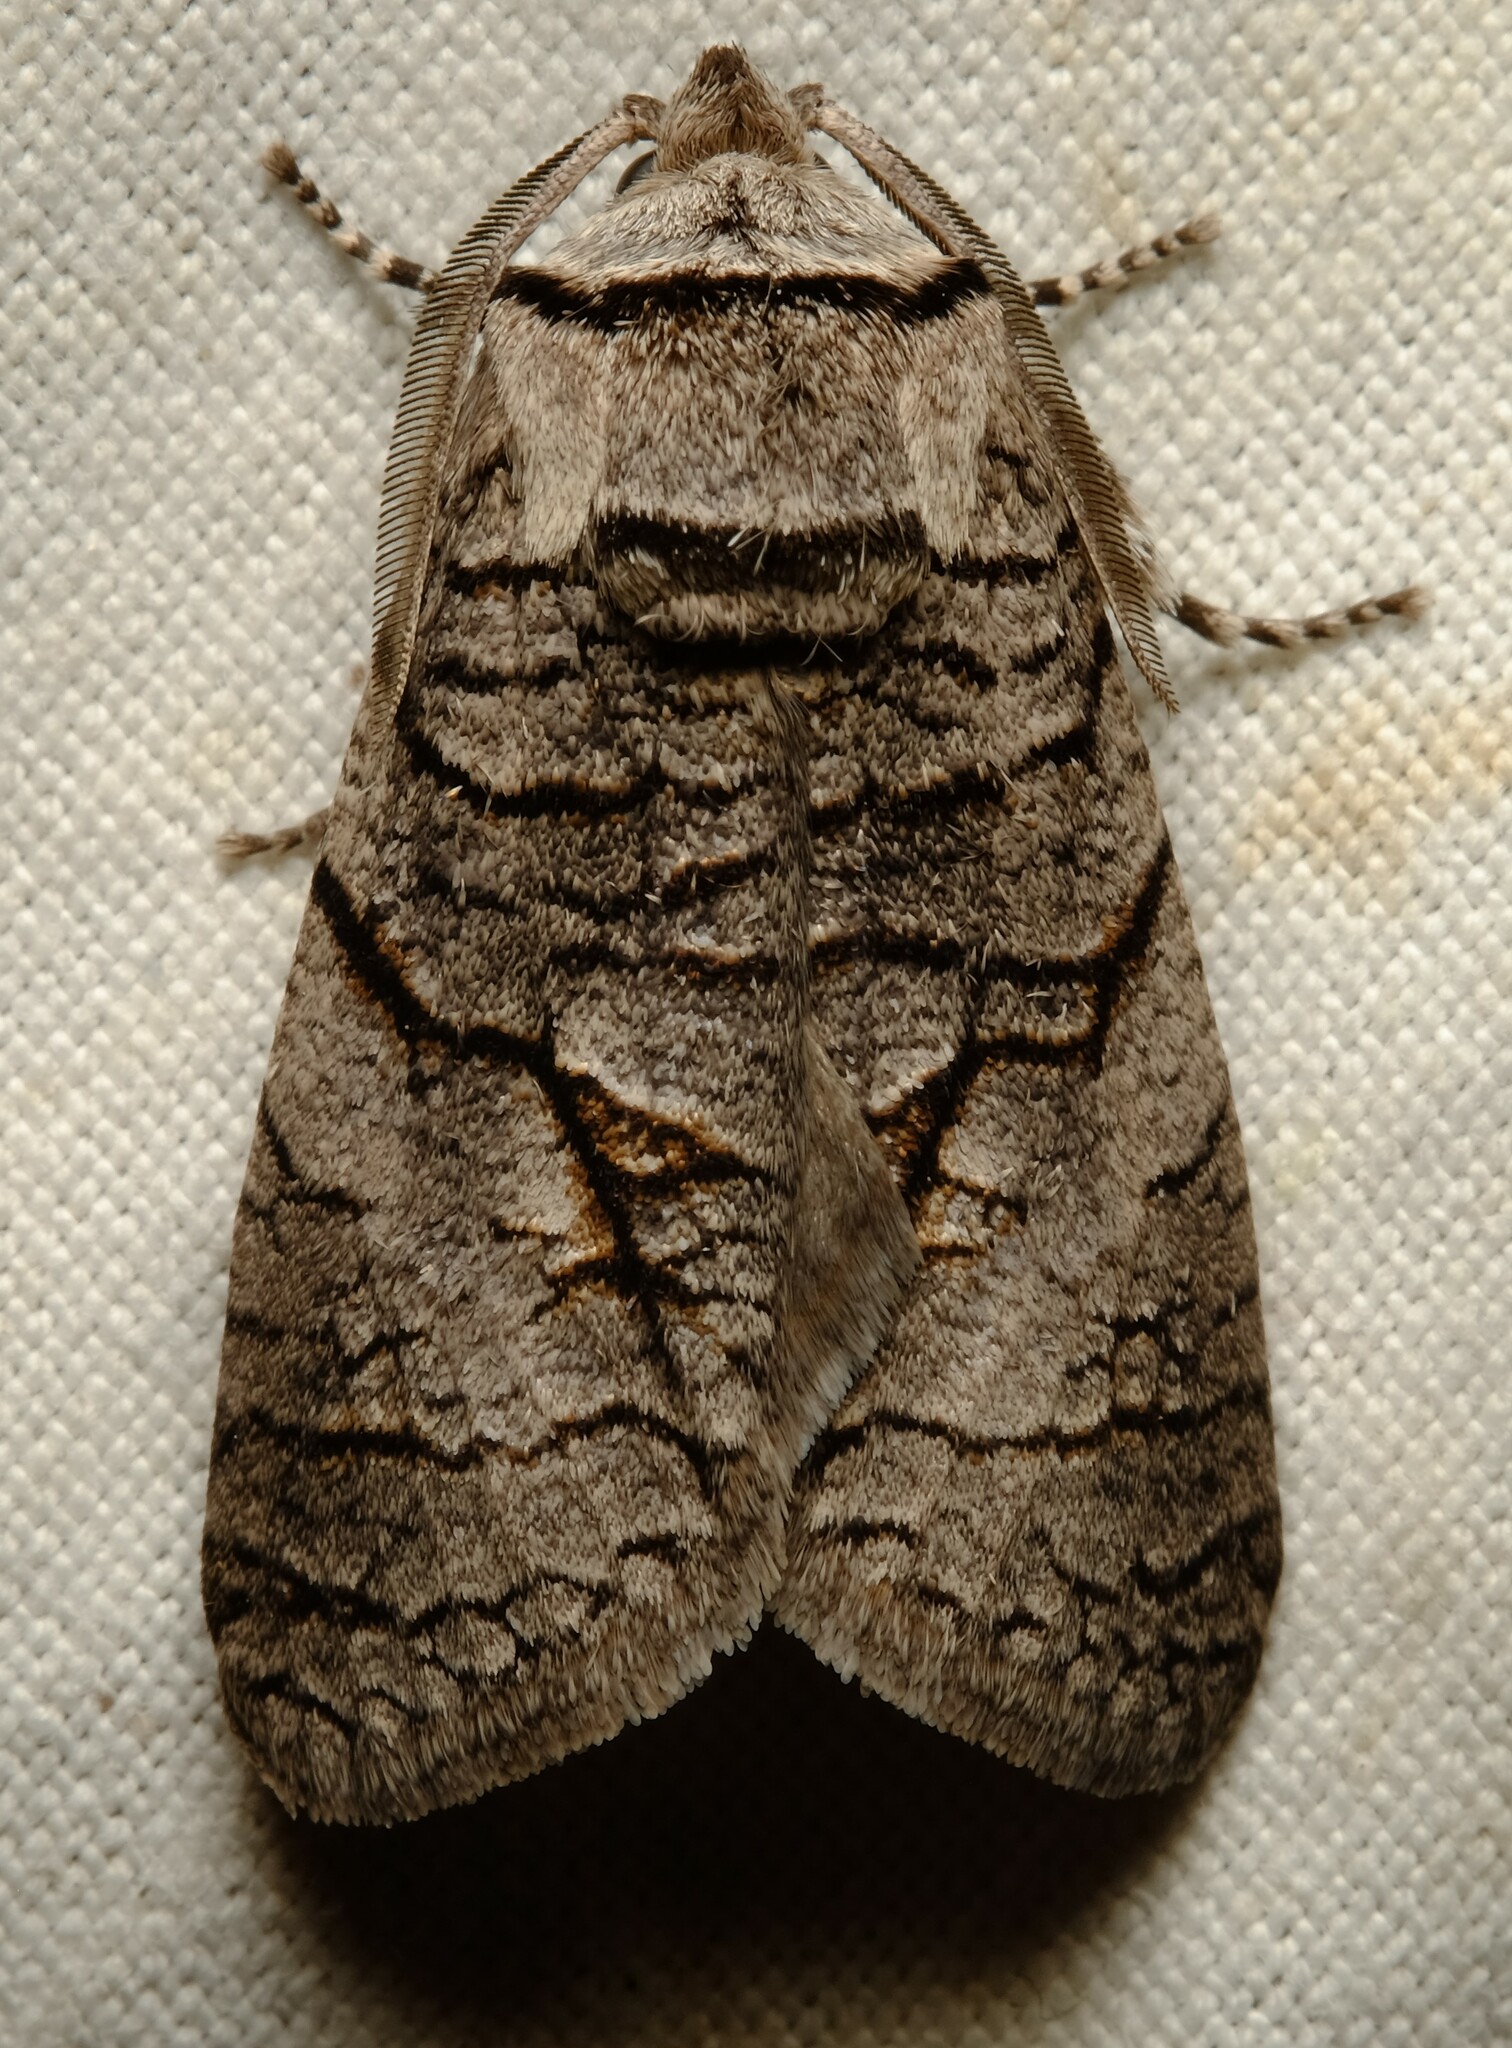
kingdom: Animalia
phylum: Arthropoda
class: Insecta
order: Lepidoptera
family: Cossidae
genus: Culama
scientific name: Culama anthracica
